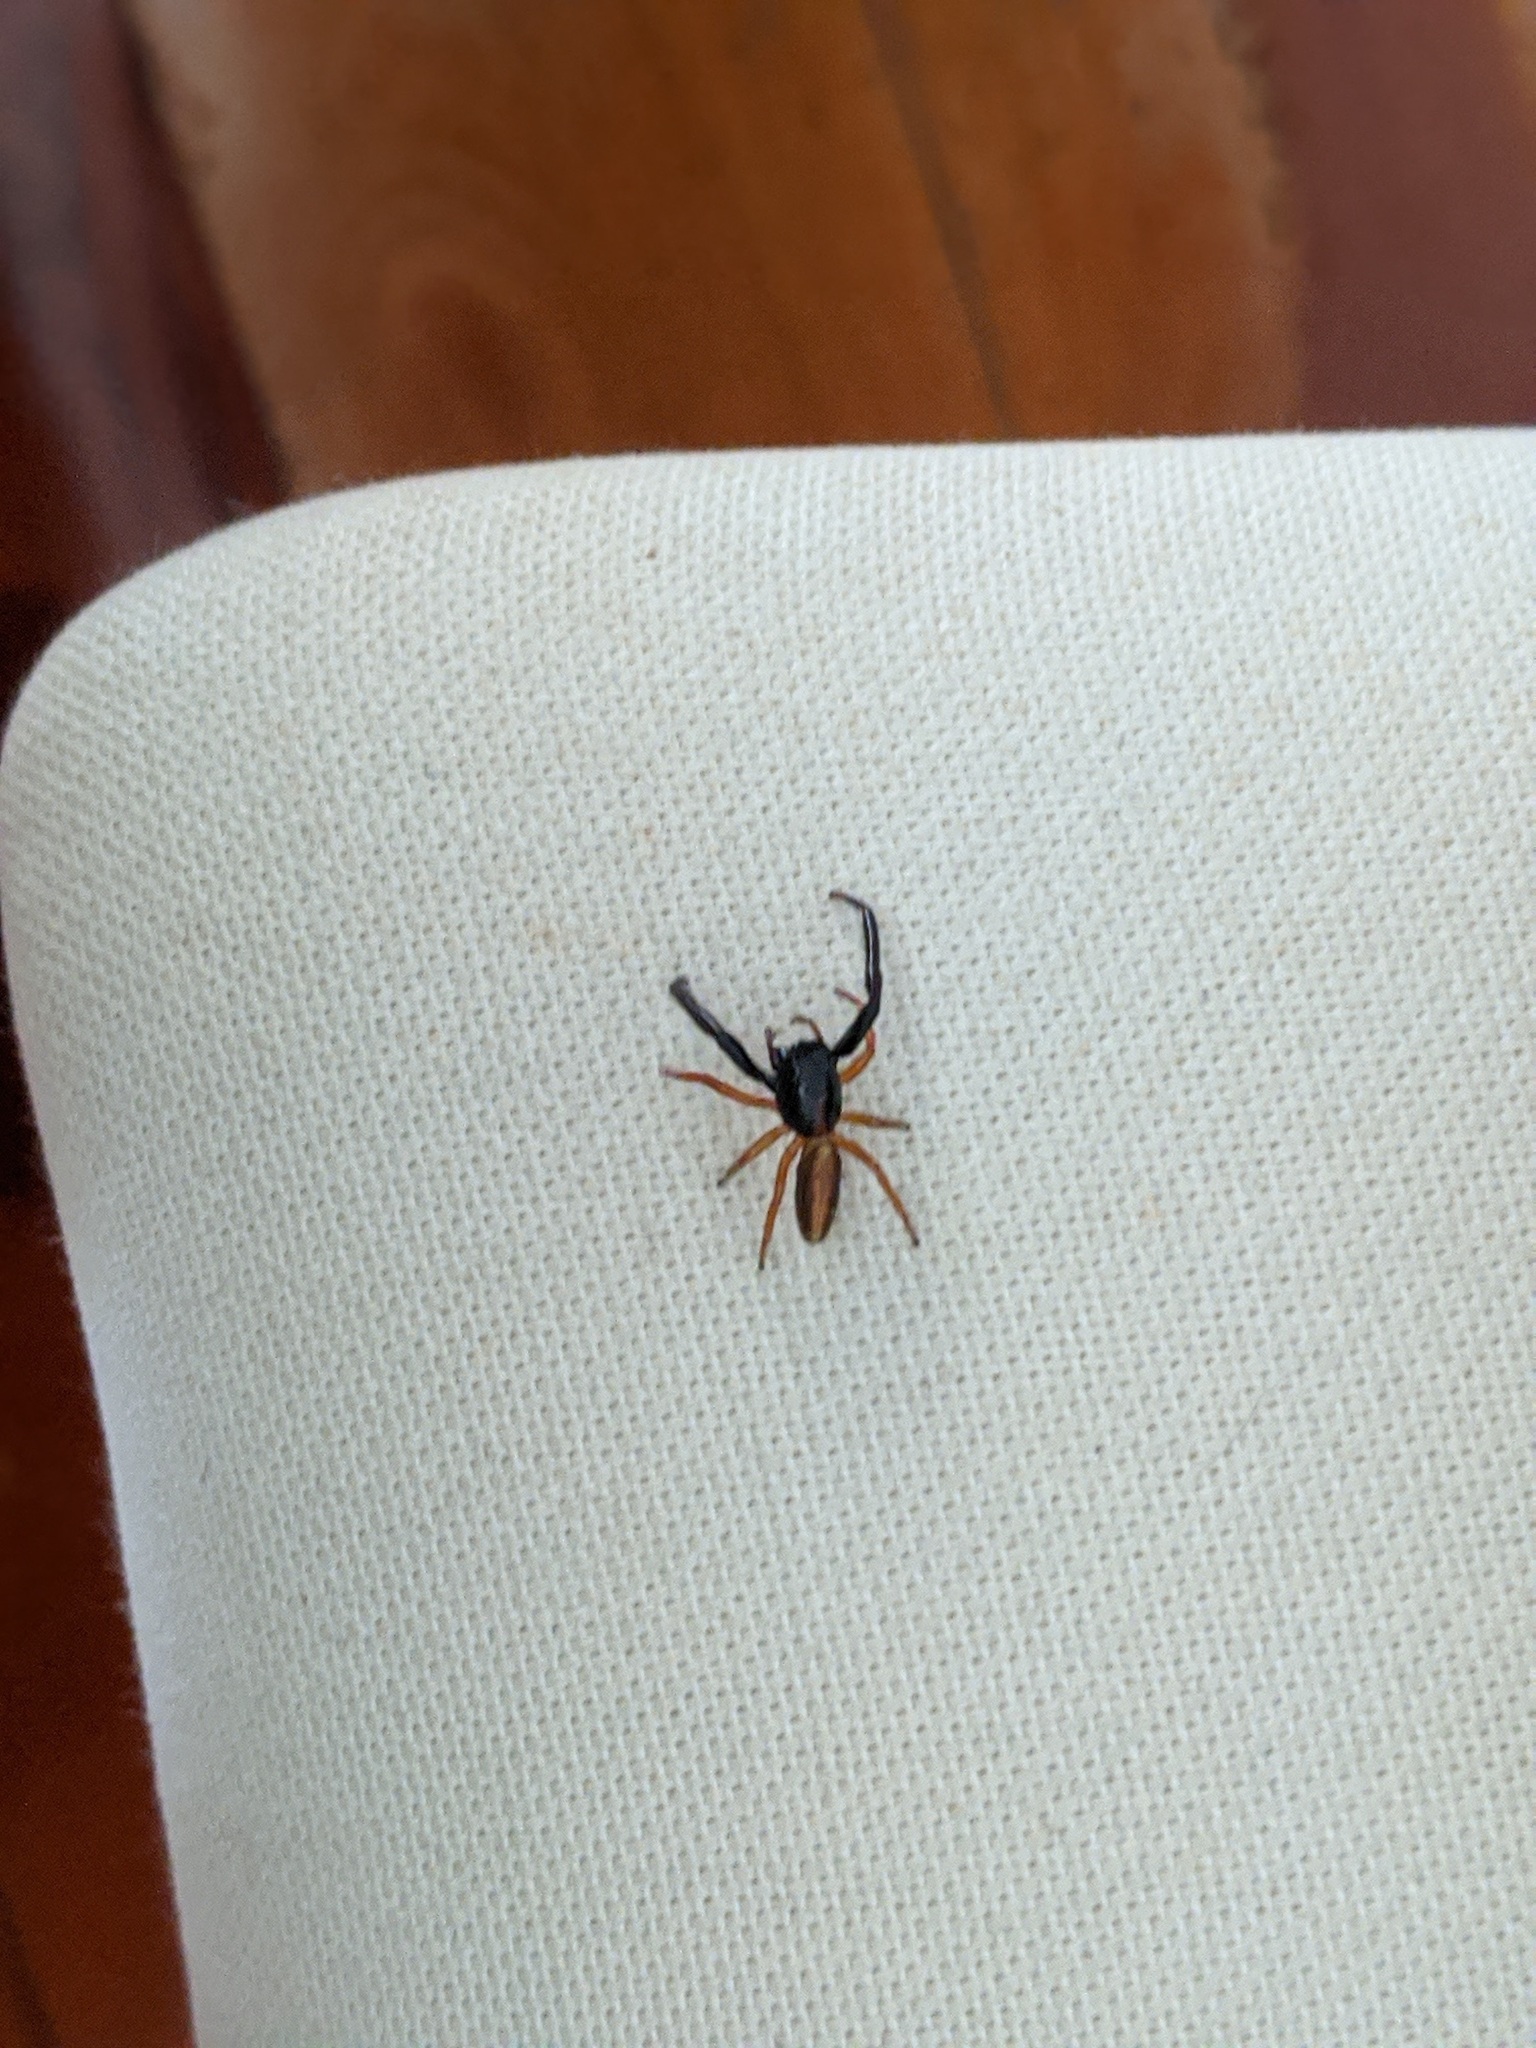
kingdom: Animalia
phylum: Arthropoda
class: Arachnida
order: Araneae
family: Salticidae
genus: Trite
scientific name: Trite planiceps
